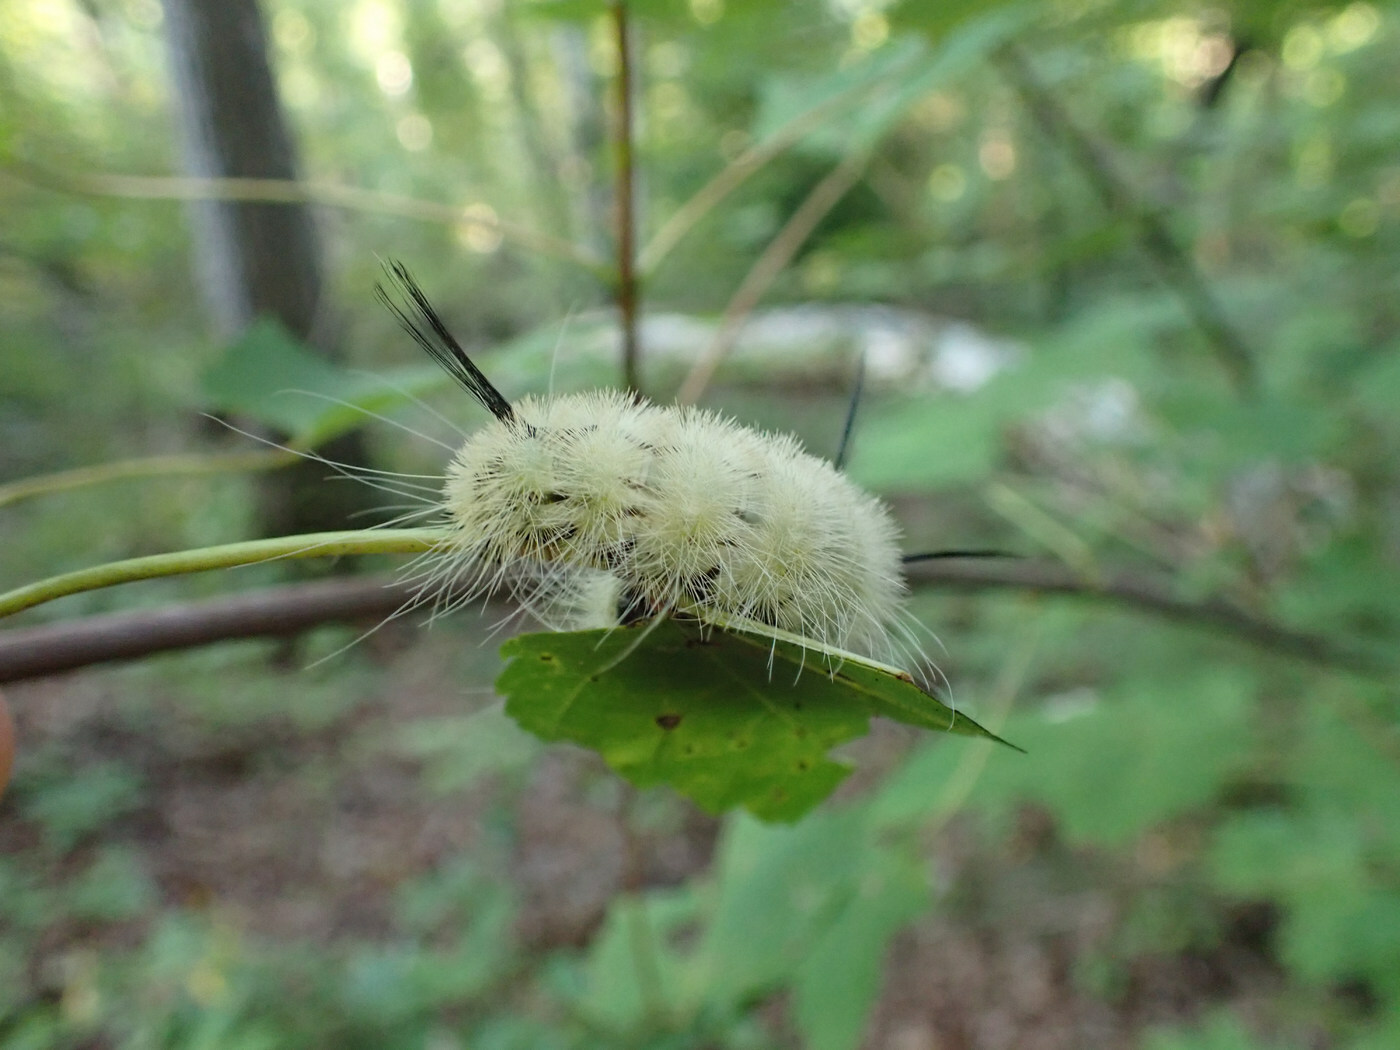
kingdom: Animalia
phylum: Arthropoda
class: Insecta
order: Lepidoptera
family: Noctuidae
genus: Acronicta
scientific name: Acronicta americana
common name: American dagger
